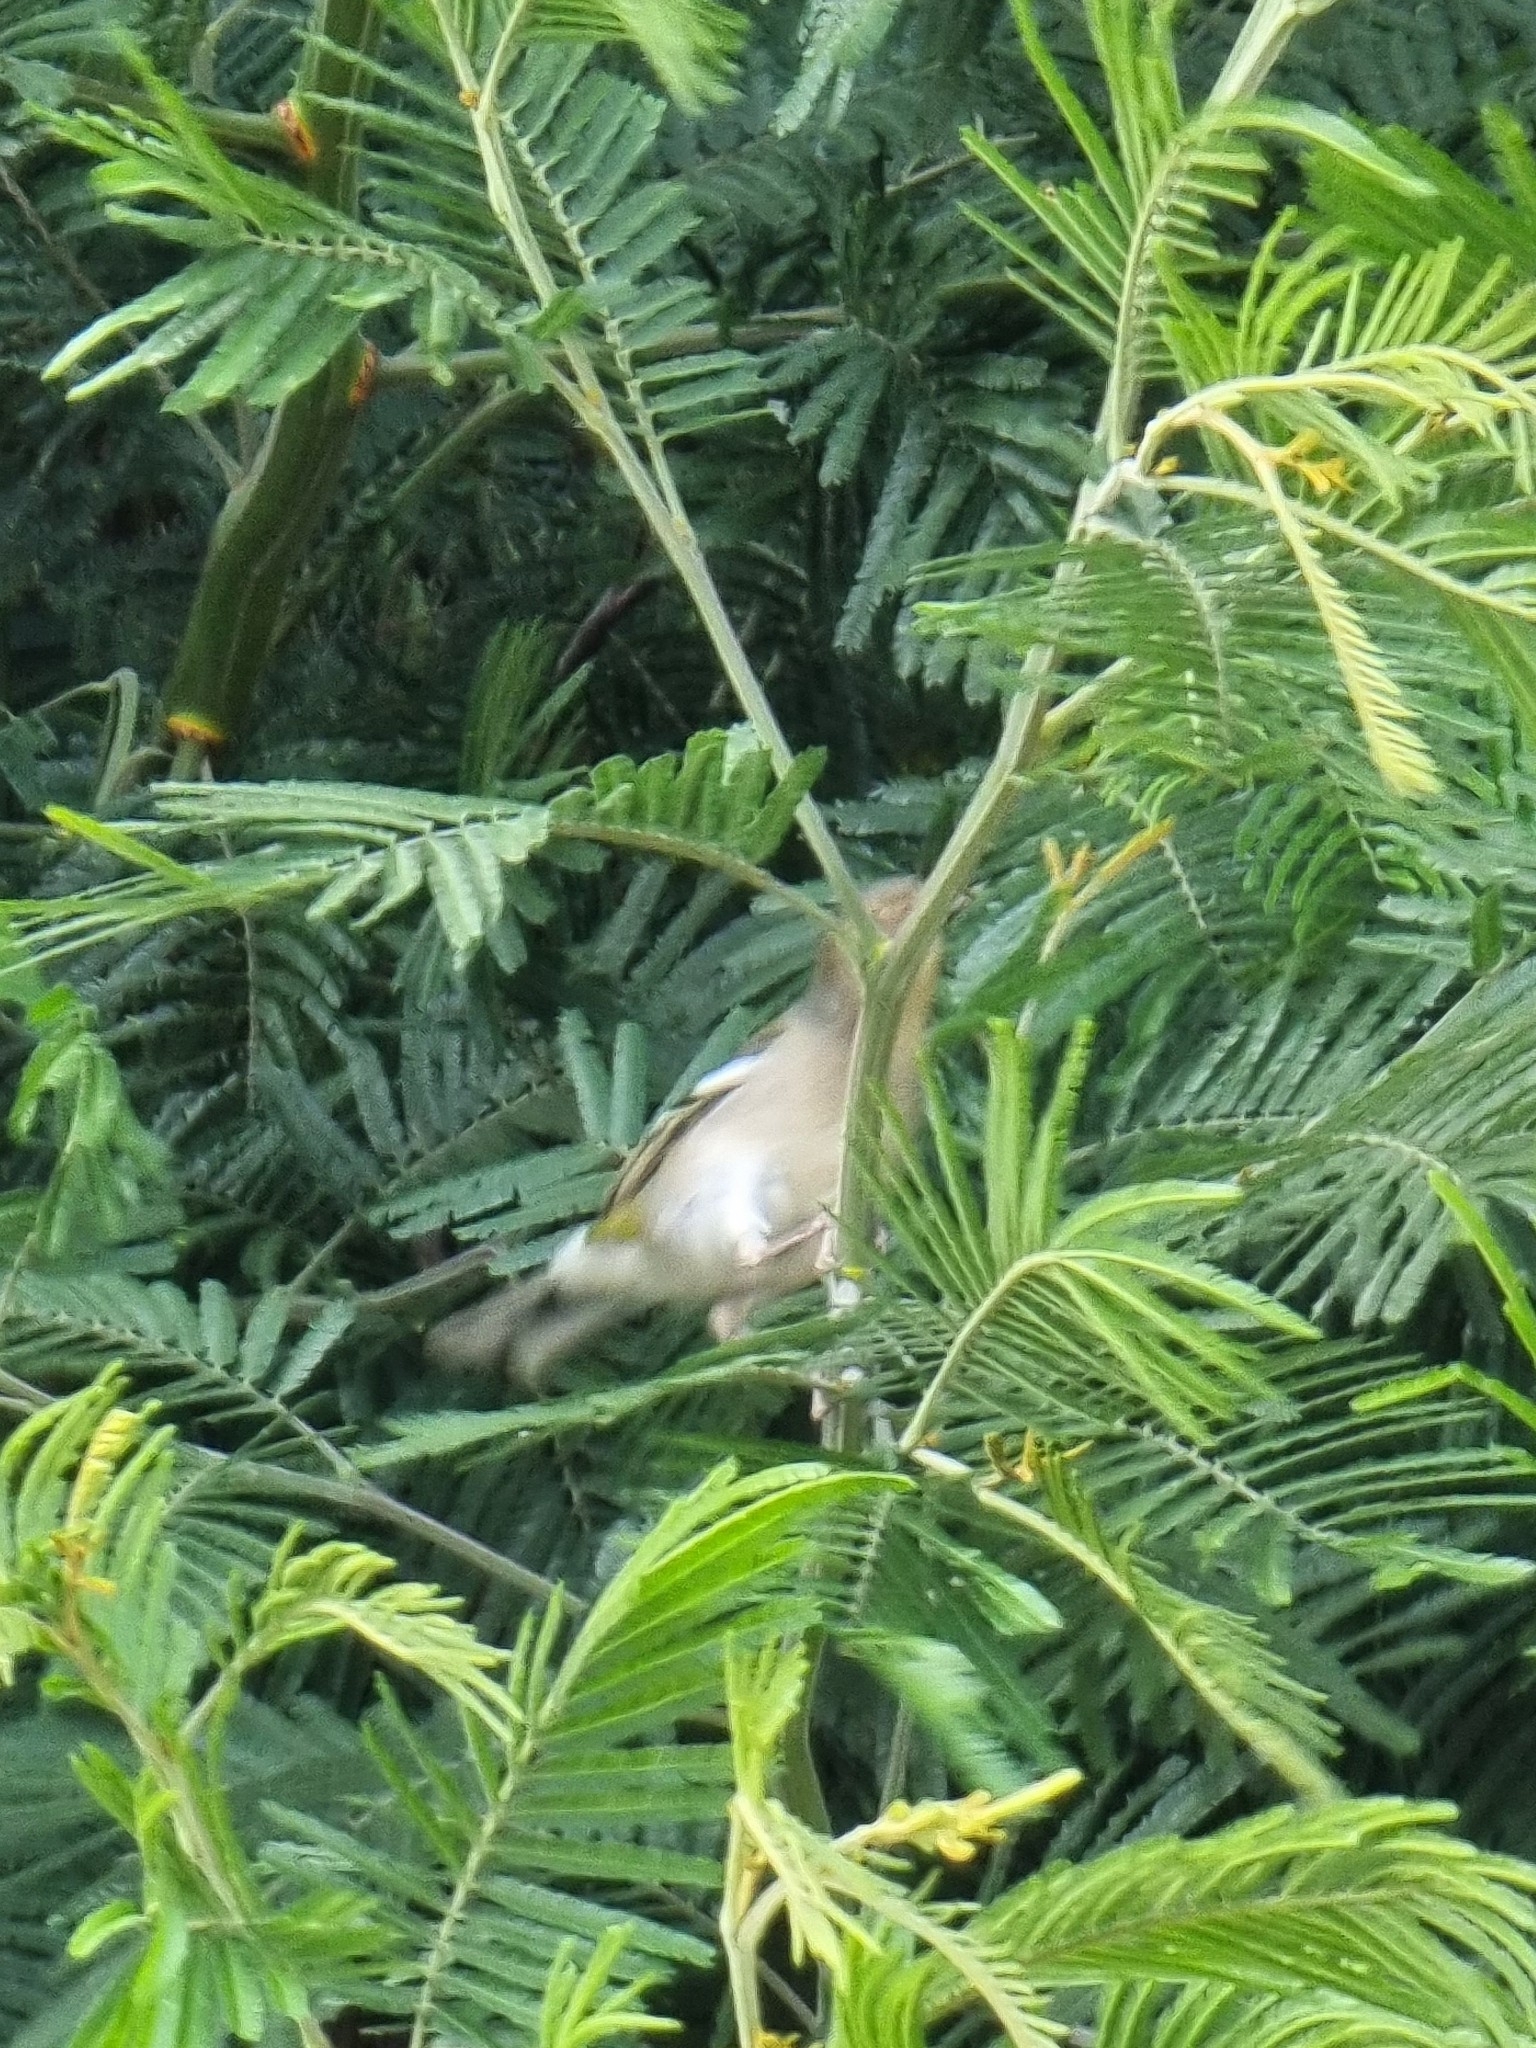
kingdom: Animalia
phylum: Chordata
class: Aves
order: Passeriformes
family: Fringillidae
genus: Fringilla
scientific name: Fringilla maderensis
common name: Madeira chaffinch
